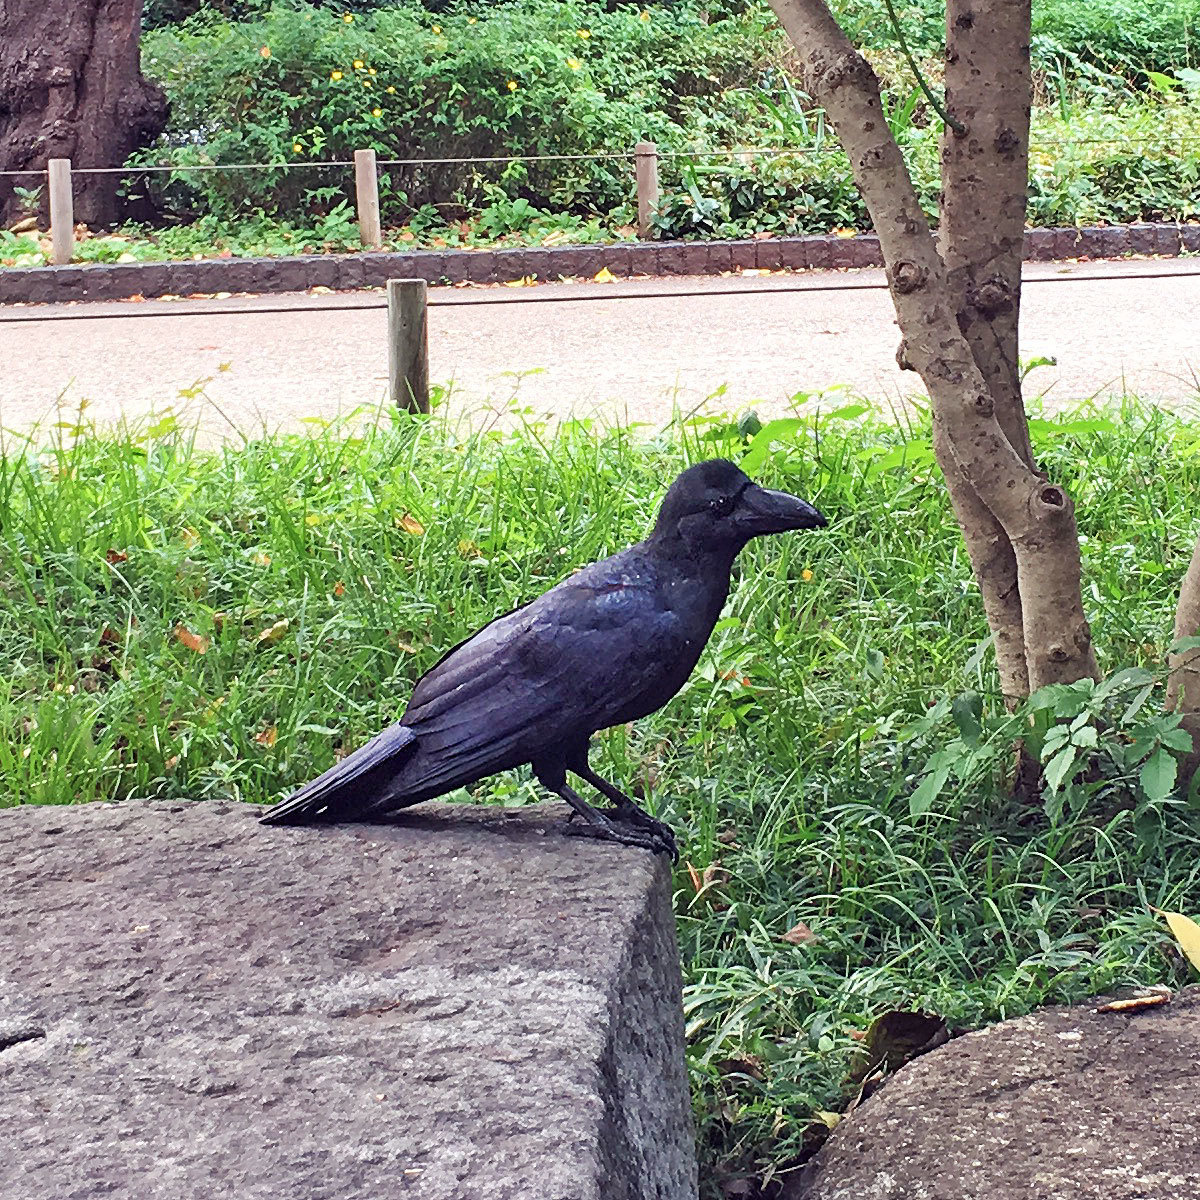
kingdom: Animalia
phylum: Chordata
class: Aves
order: Passeriformes
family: Corvidae
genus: Corvus
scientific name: Corvus macrorhynchos
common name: Large-billed crow
